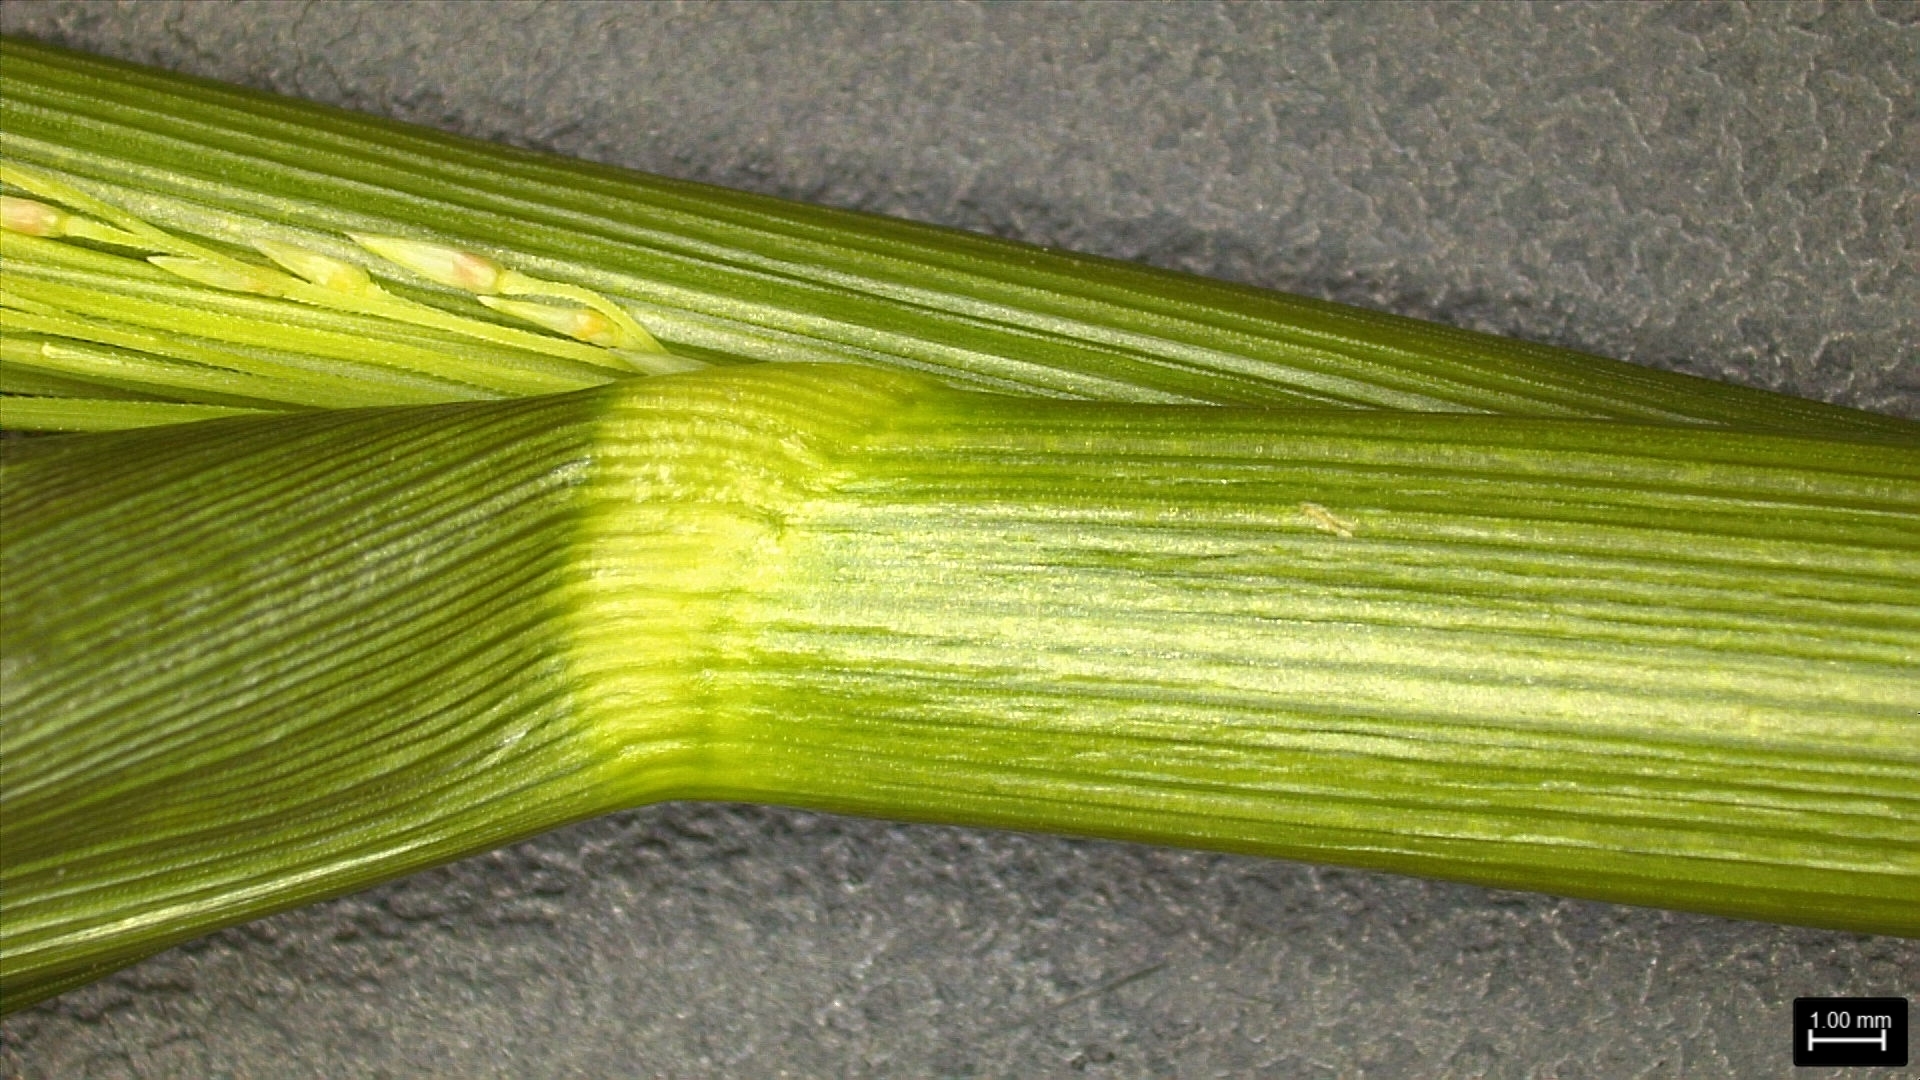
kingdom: Plantae
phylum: Tracheophyta
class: Liliopsida
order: Poales
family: Poaceae
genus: Panicum
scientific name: Panicum dichotomiflorum
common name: Autumn millet
